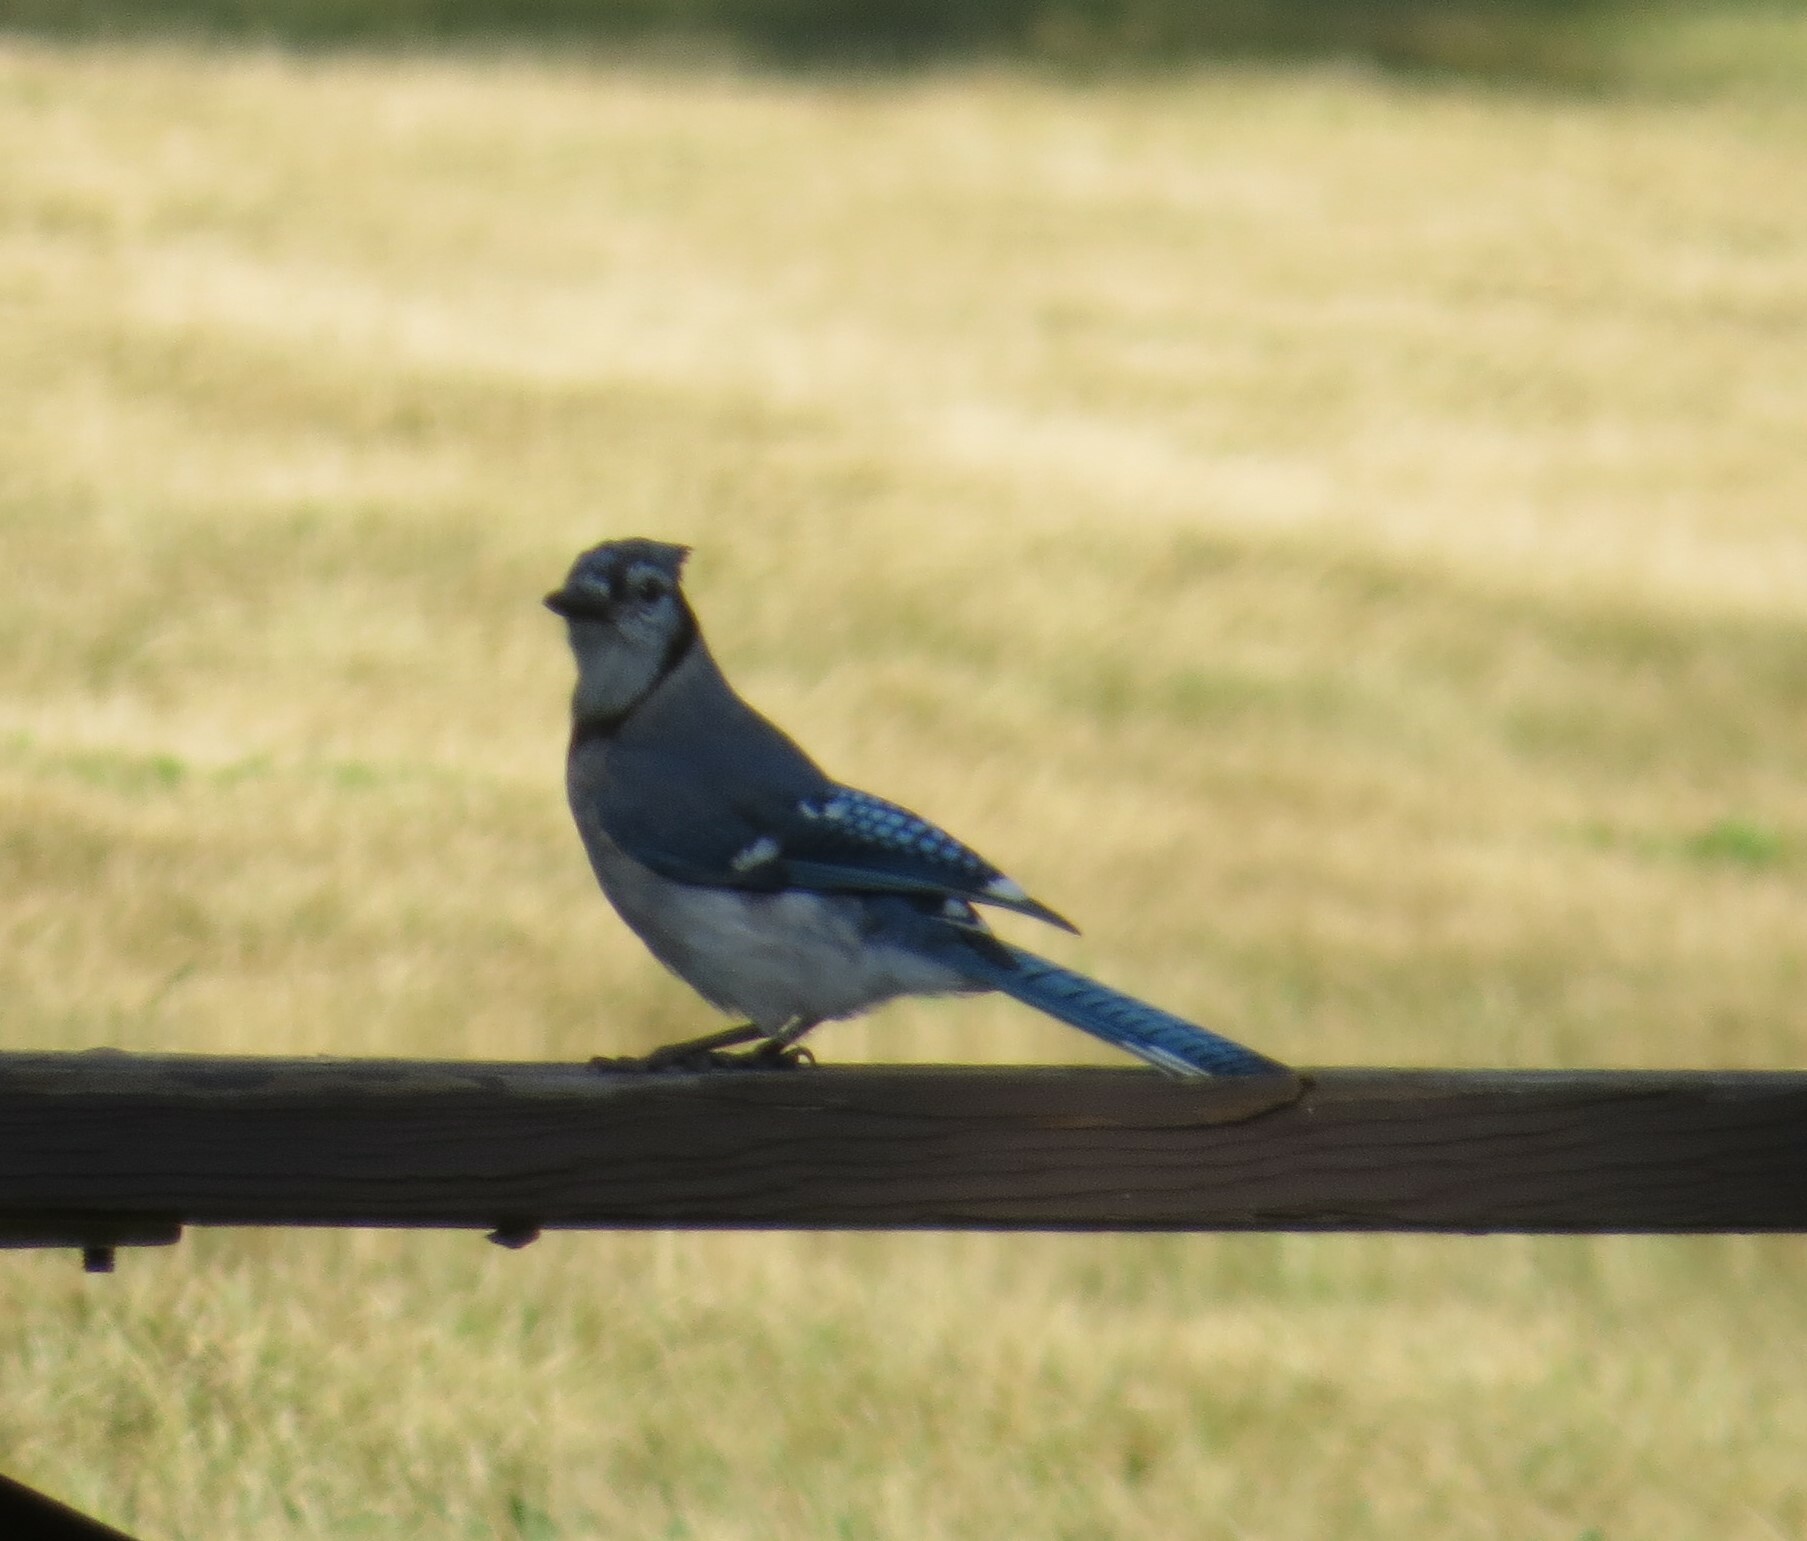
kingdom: Animalia
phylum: Chordata
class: Aves
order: Passeriformes
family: Corvidae
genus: Cyanocitta
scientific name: Cyanocitta cristata
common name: Blue jay
